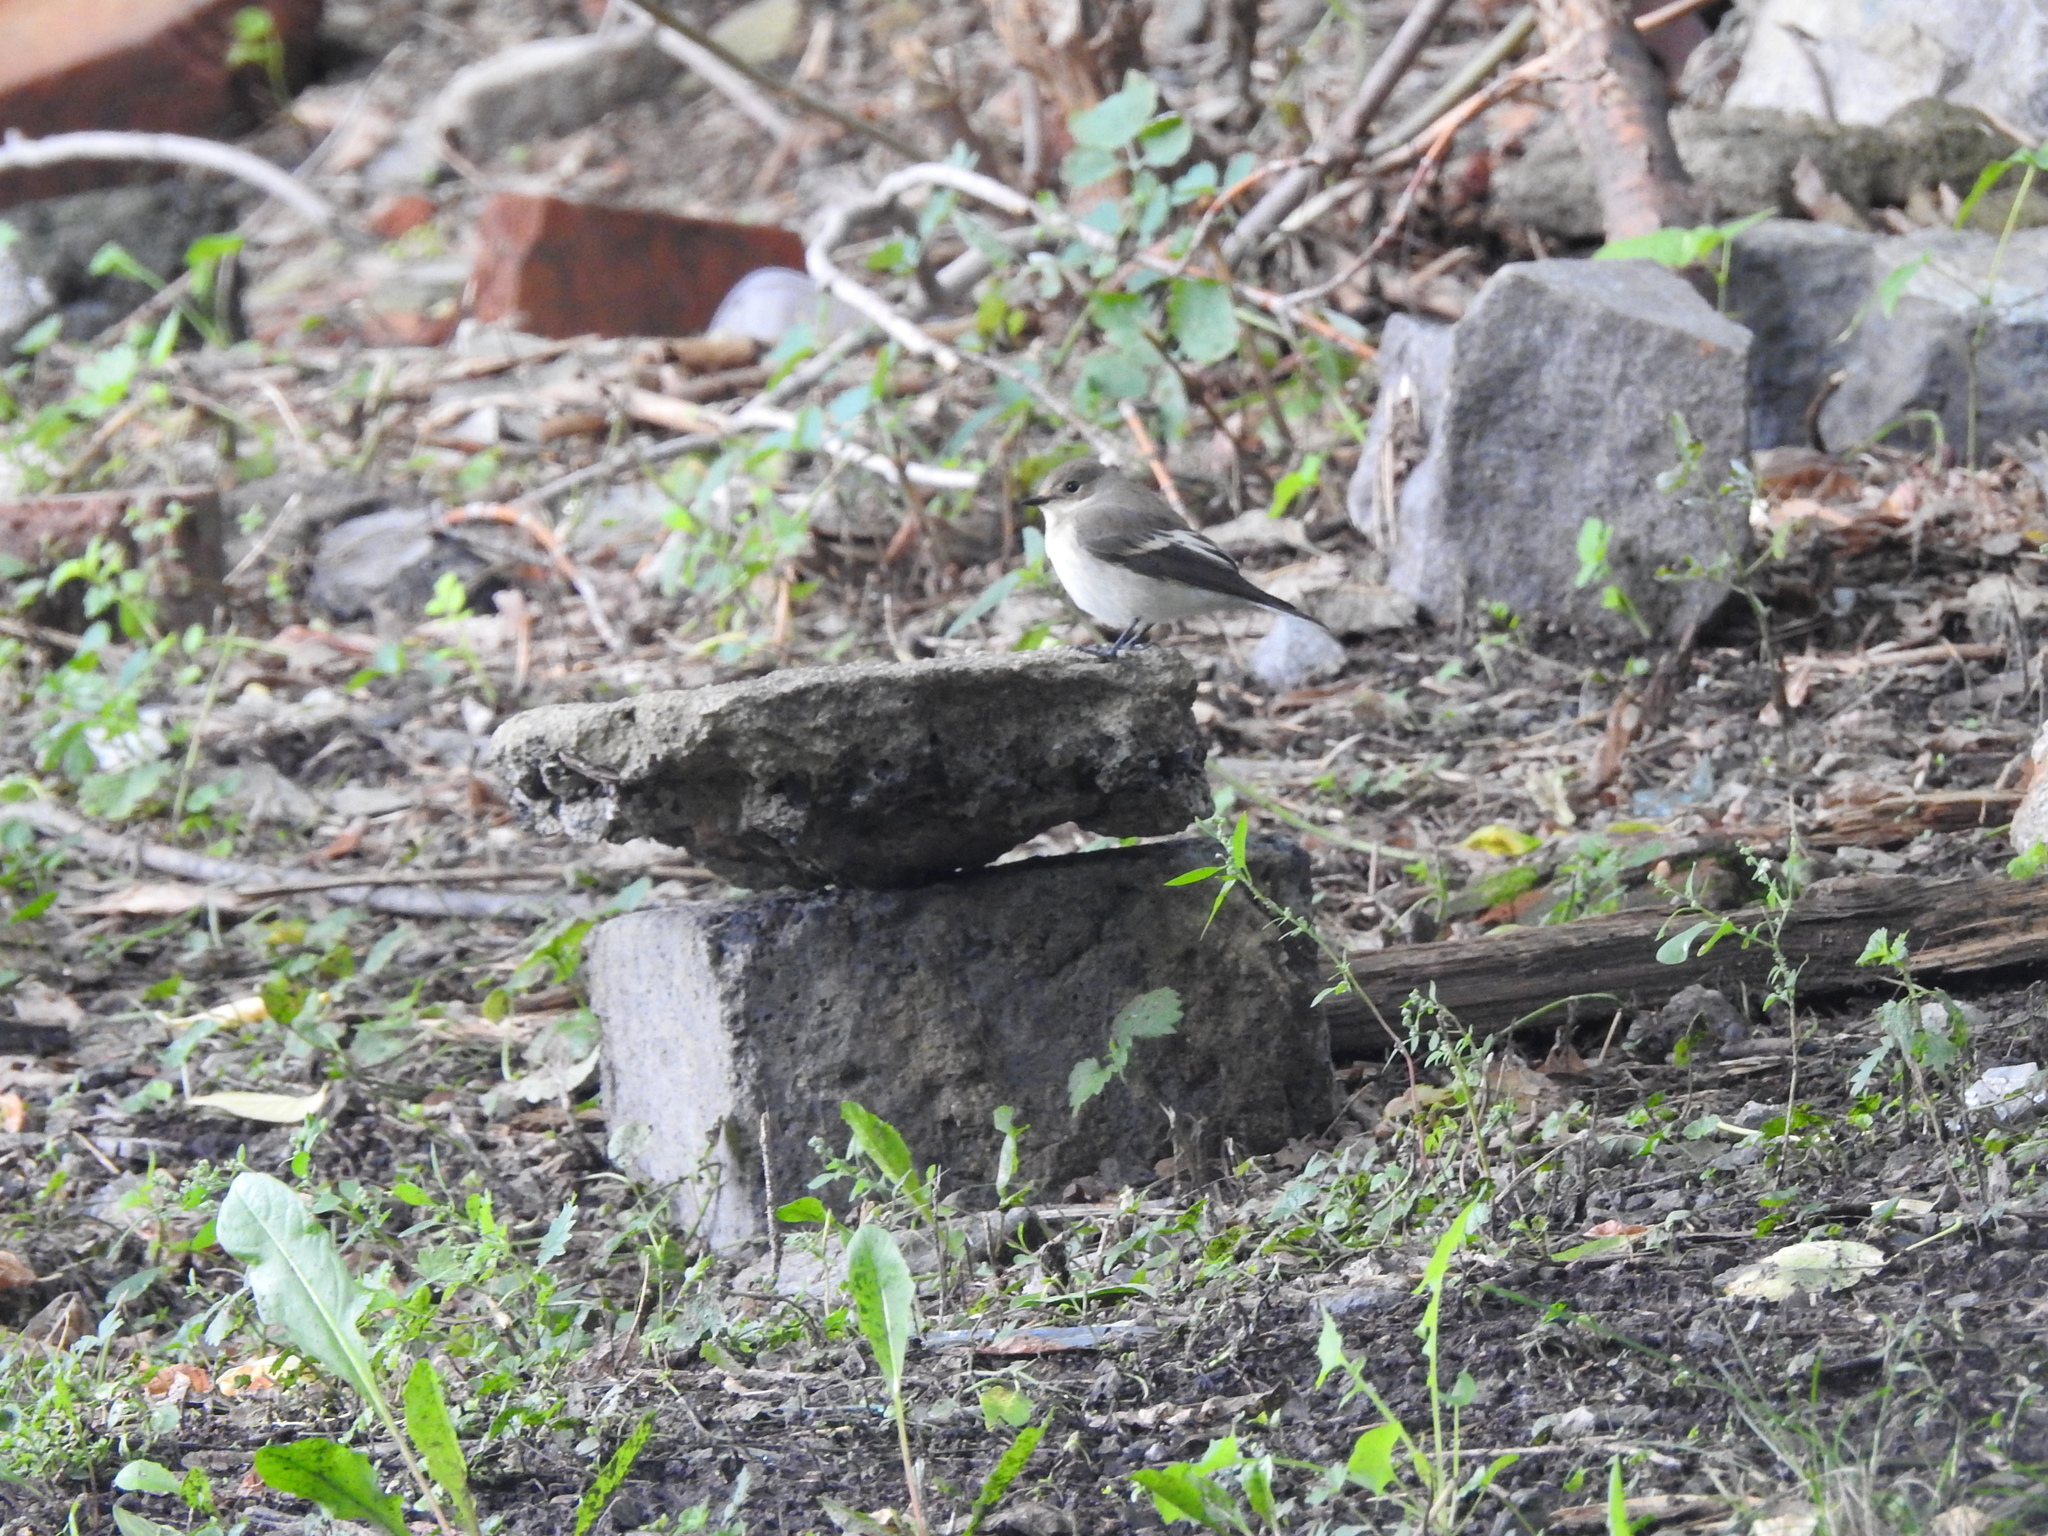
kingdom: Animalia
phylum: Chordata
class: Aves
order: Passeriformes
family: Muscicapidae
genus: Ficedula
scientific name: Ficedula hypoleuca
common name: European pied flycatcher
